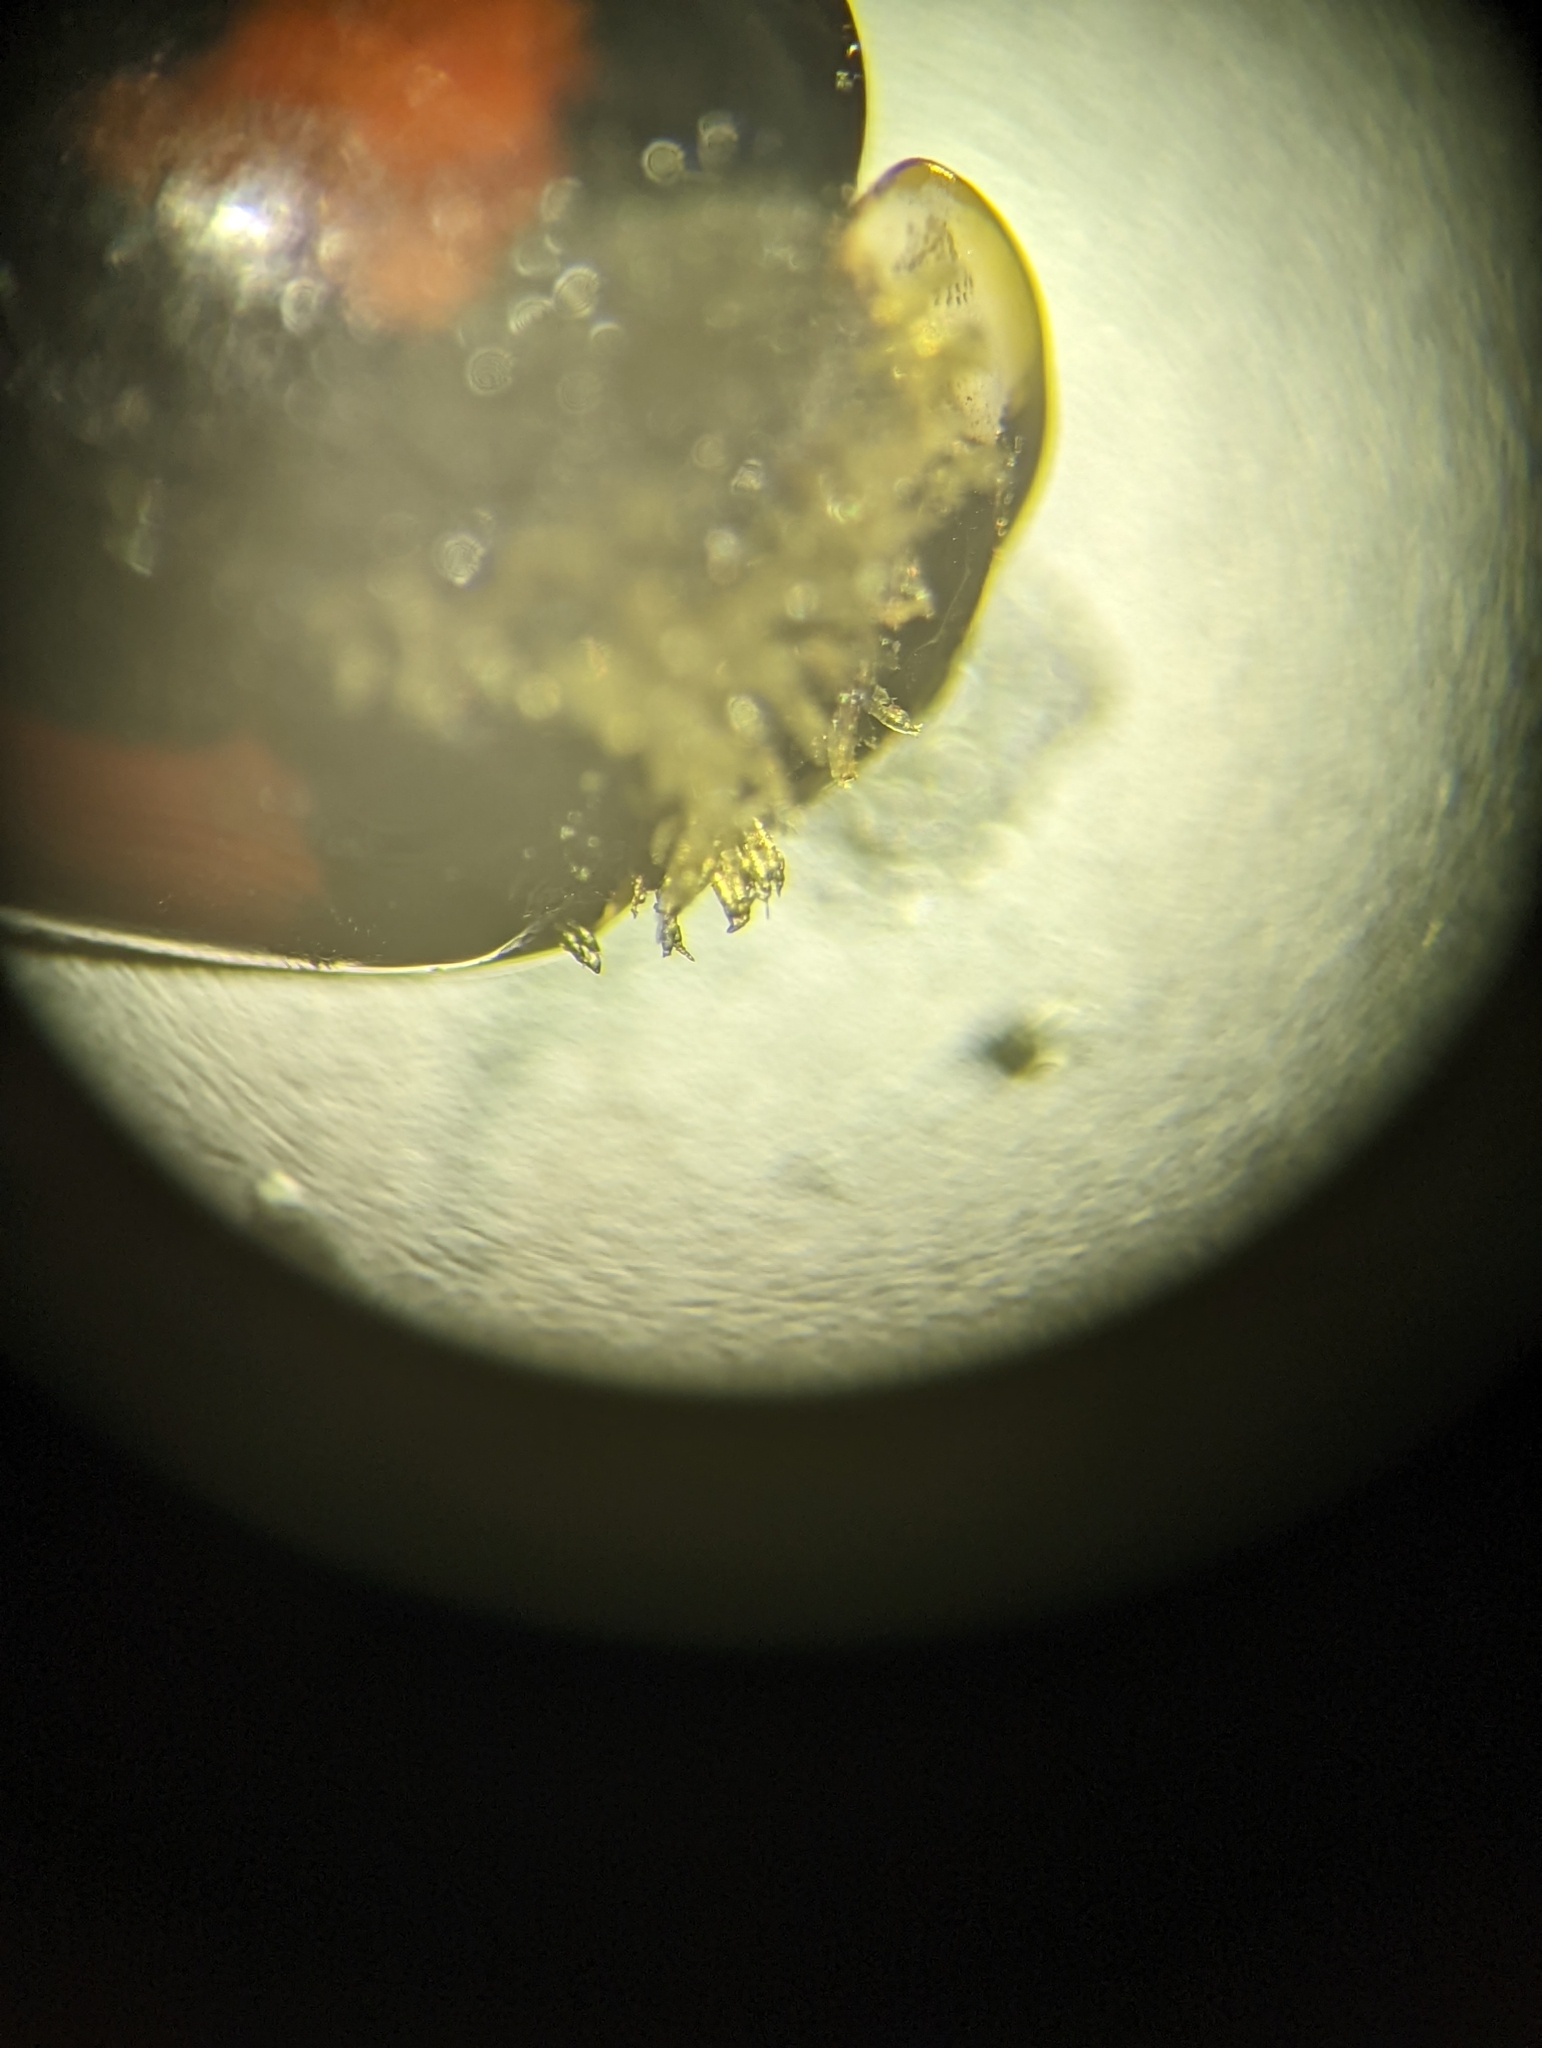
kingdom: Fungi
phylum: Ascomycota
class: Laboulbeniomycetes
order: Laboulbeniales
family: Laboulbeniaceae
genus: Hesperomyces
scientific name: Hesperomyces harmoniae
